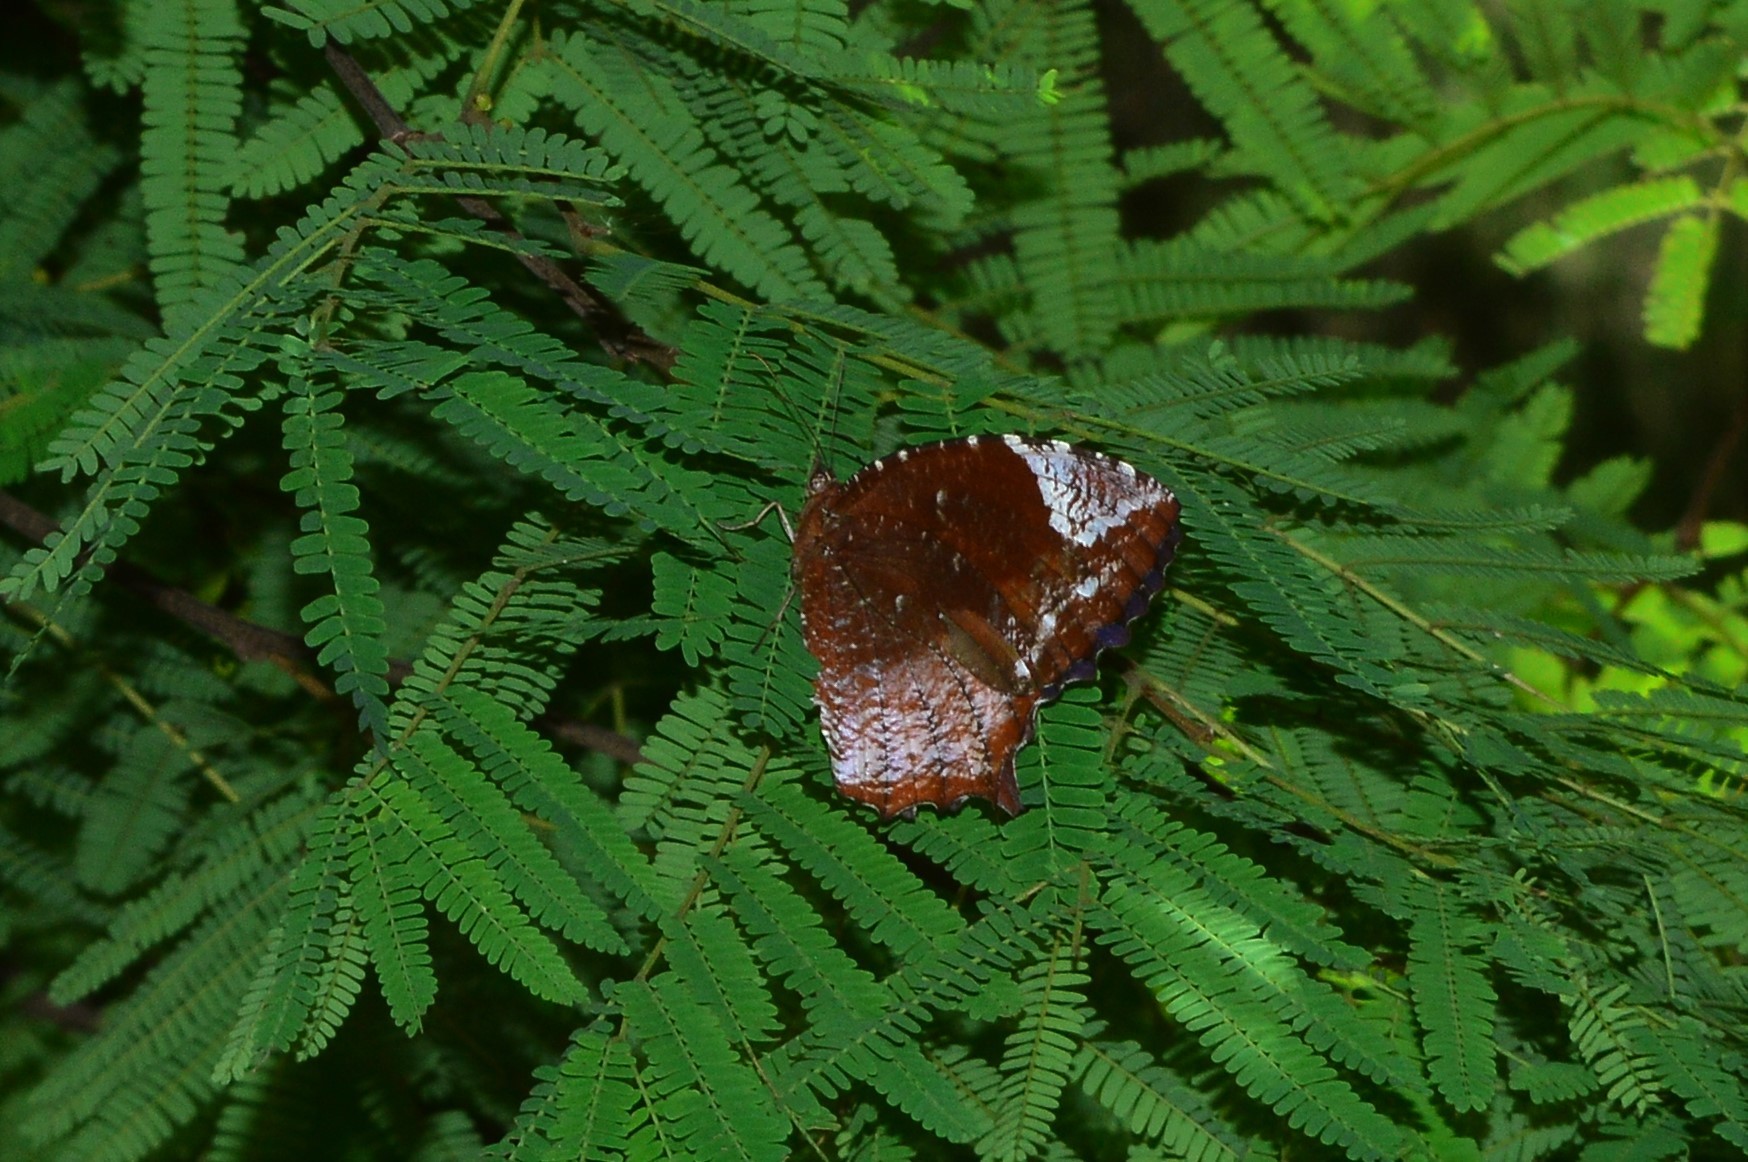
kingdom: Animalia
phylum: Arthropoda
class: Insecta
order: Lepidoptera
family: Nymphalidae
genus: Elymnias
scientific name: Elymnias caudata
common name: Tailed palmfly
